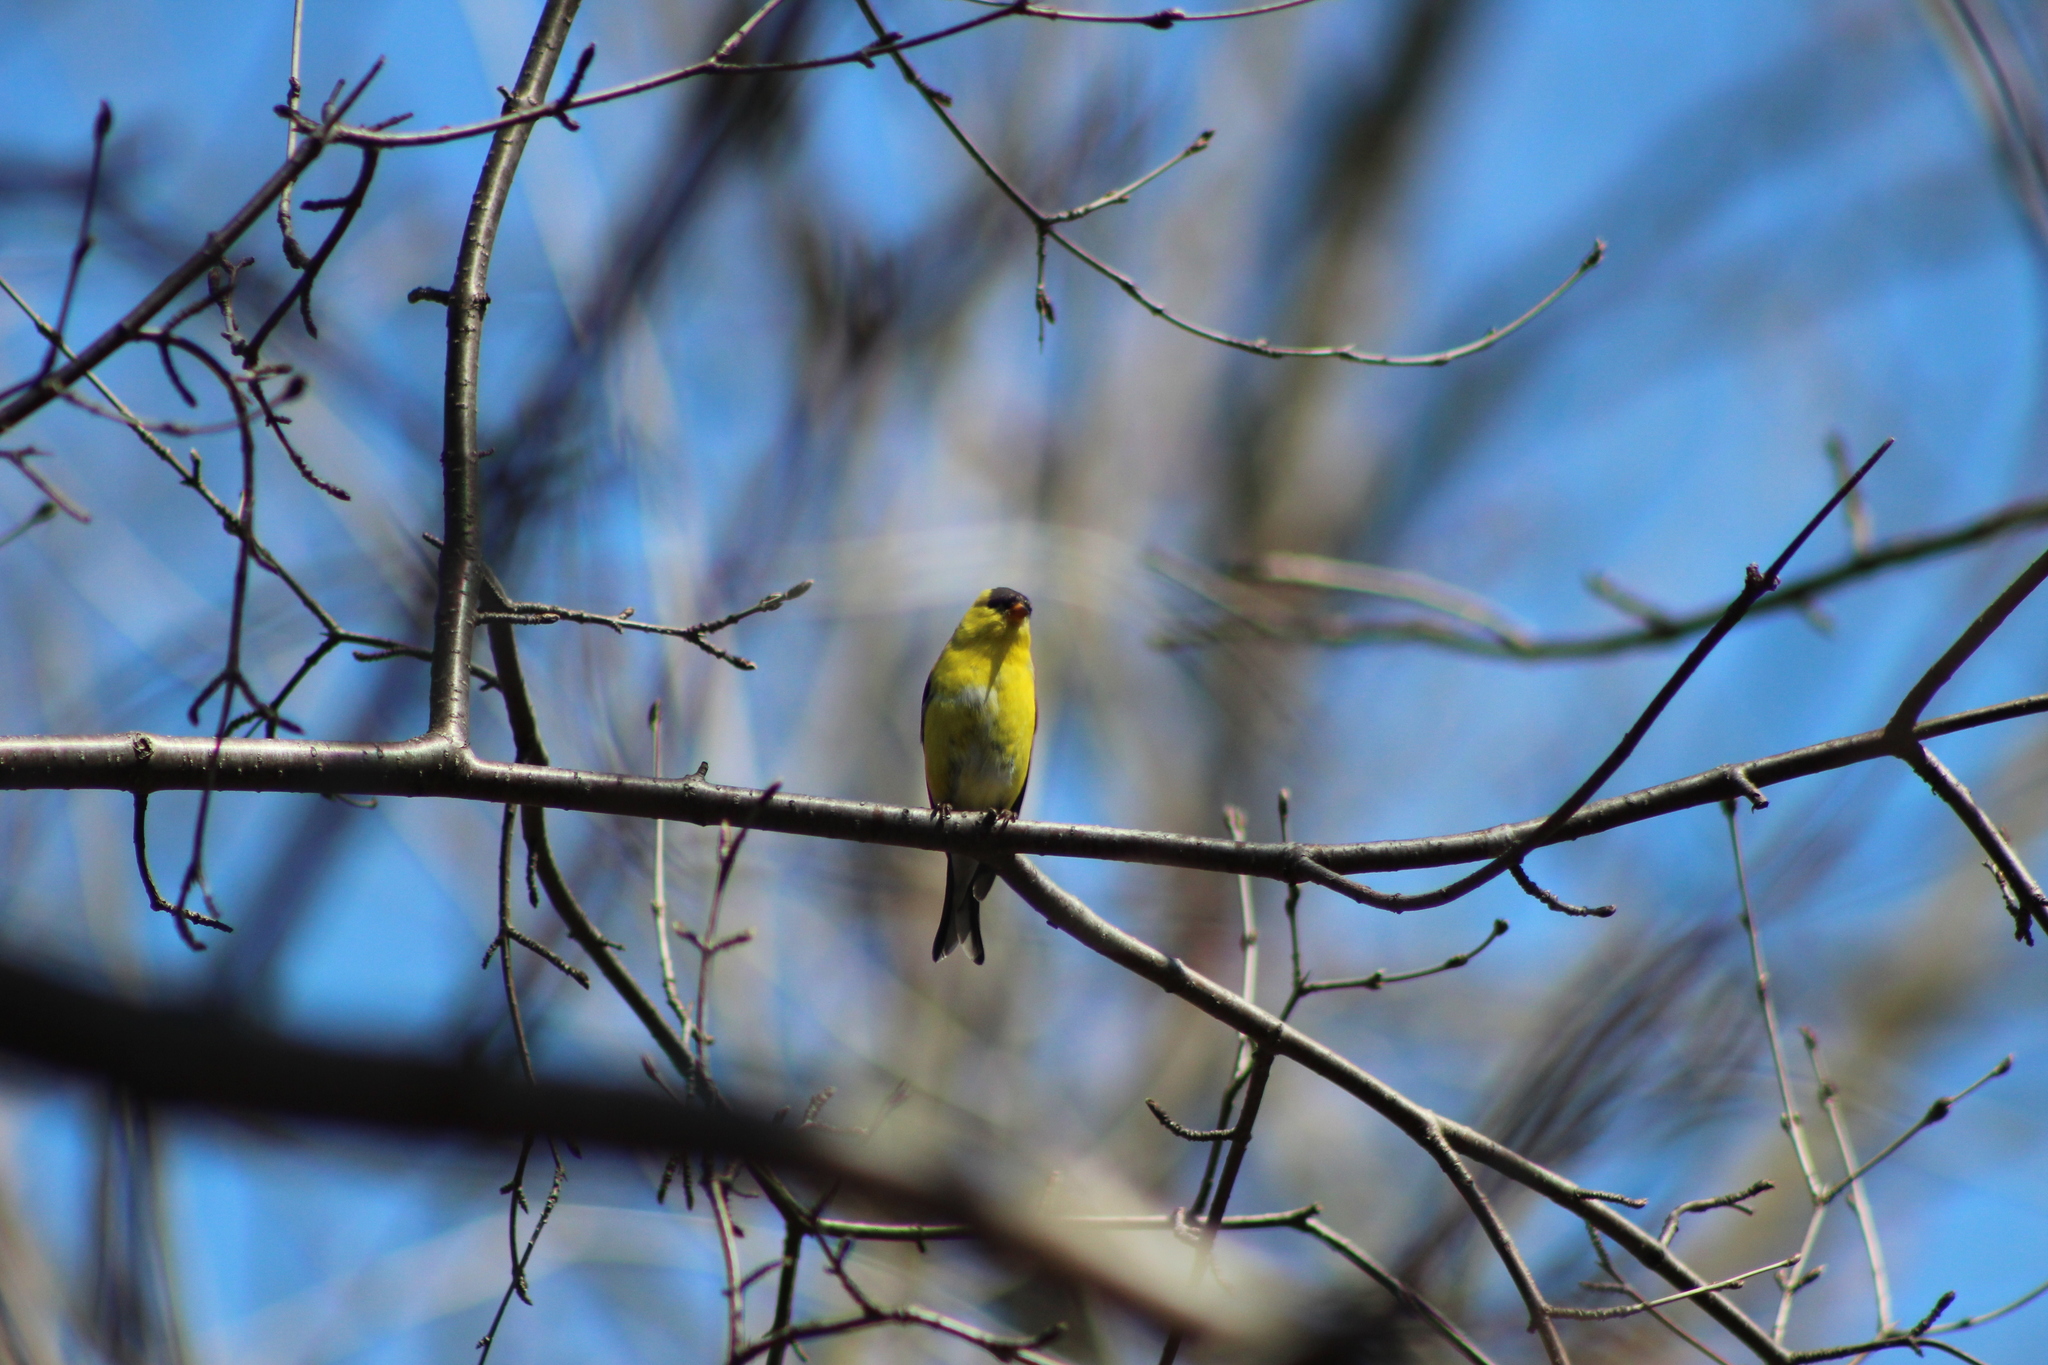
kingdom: Animalia
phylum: Chordata
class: Aves
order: Passeriformes
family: Fringillidae
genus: Spinus
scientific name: Spinus tristis
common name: American goldfinch
